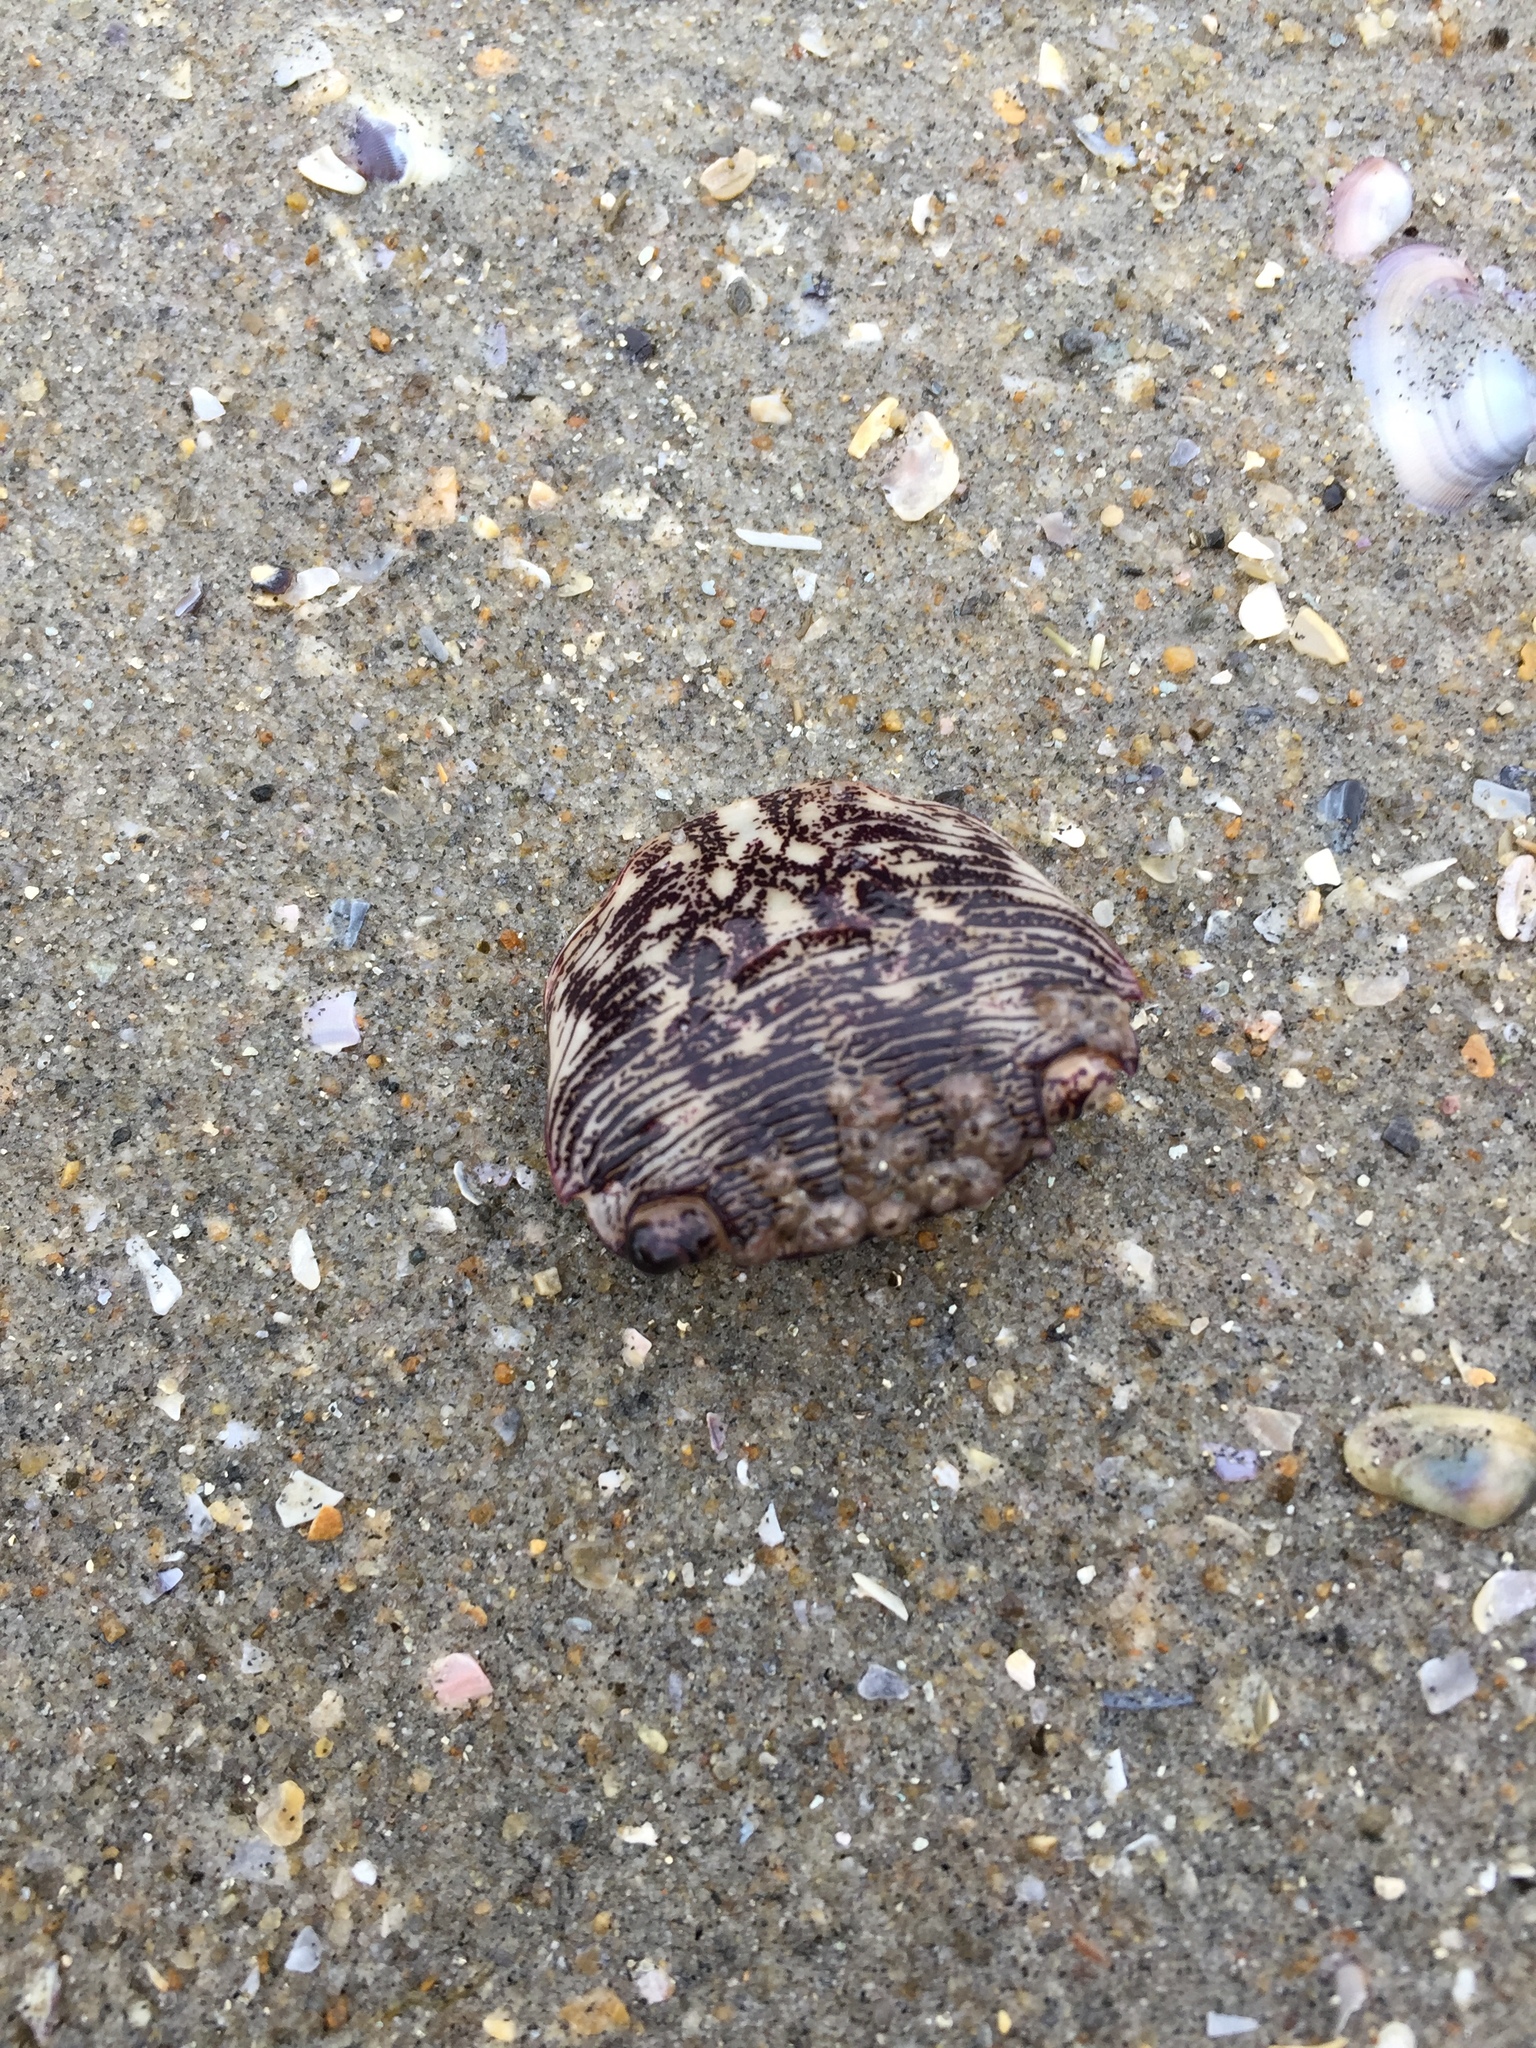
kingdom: Animalia
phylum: Arthropoda
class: Malacostraca
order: Decapoda
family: Grapsidae
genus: Pachygrapsus
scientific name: Pachygrapsus crassipes
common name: Striped shore crab
